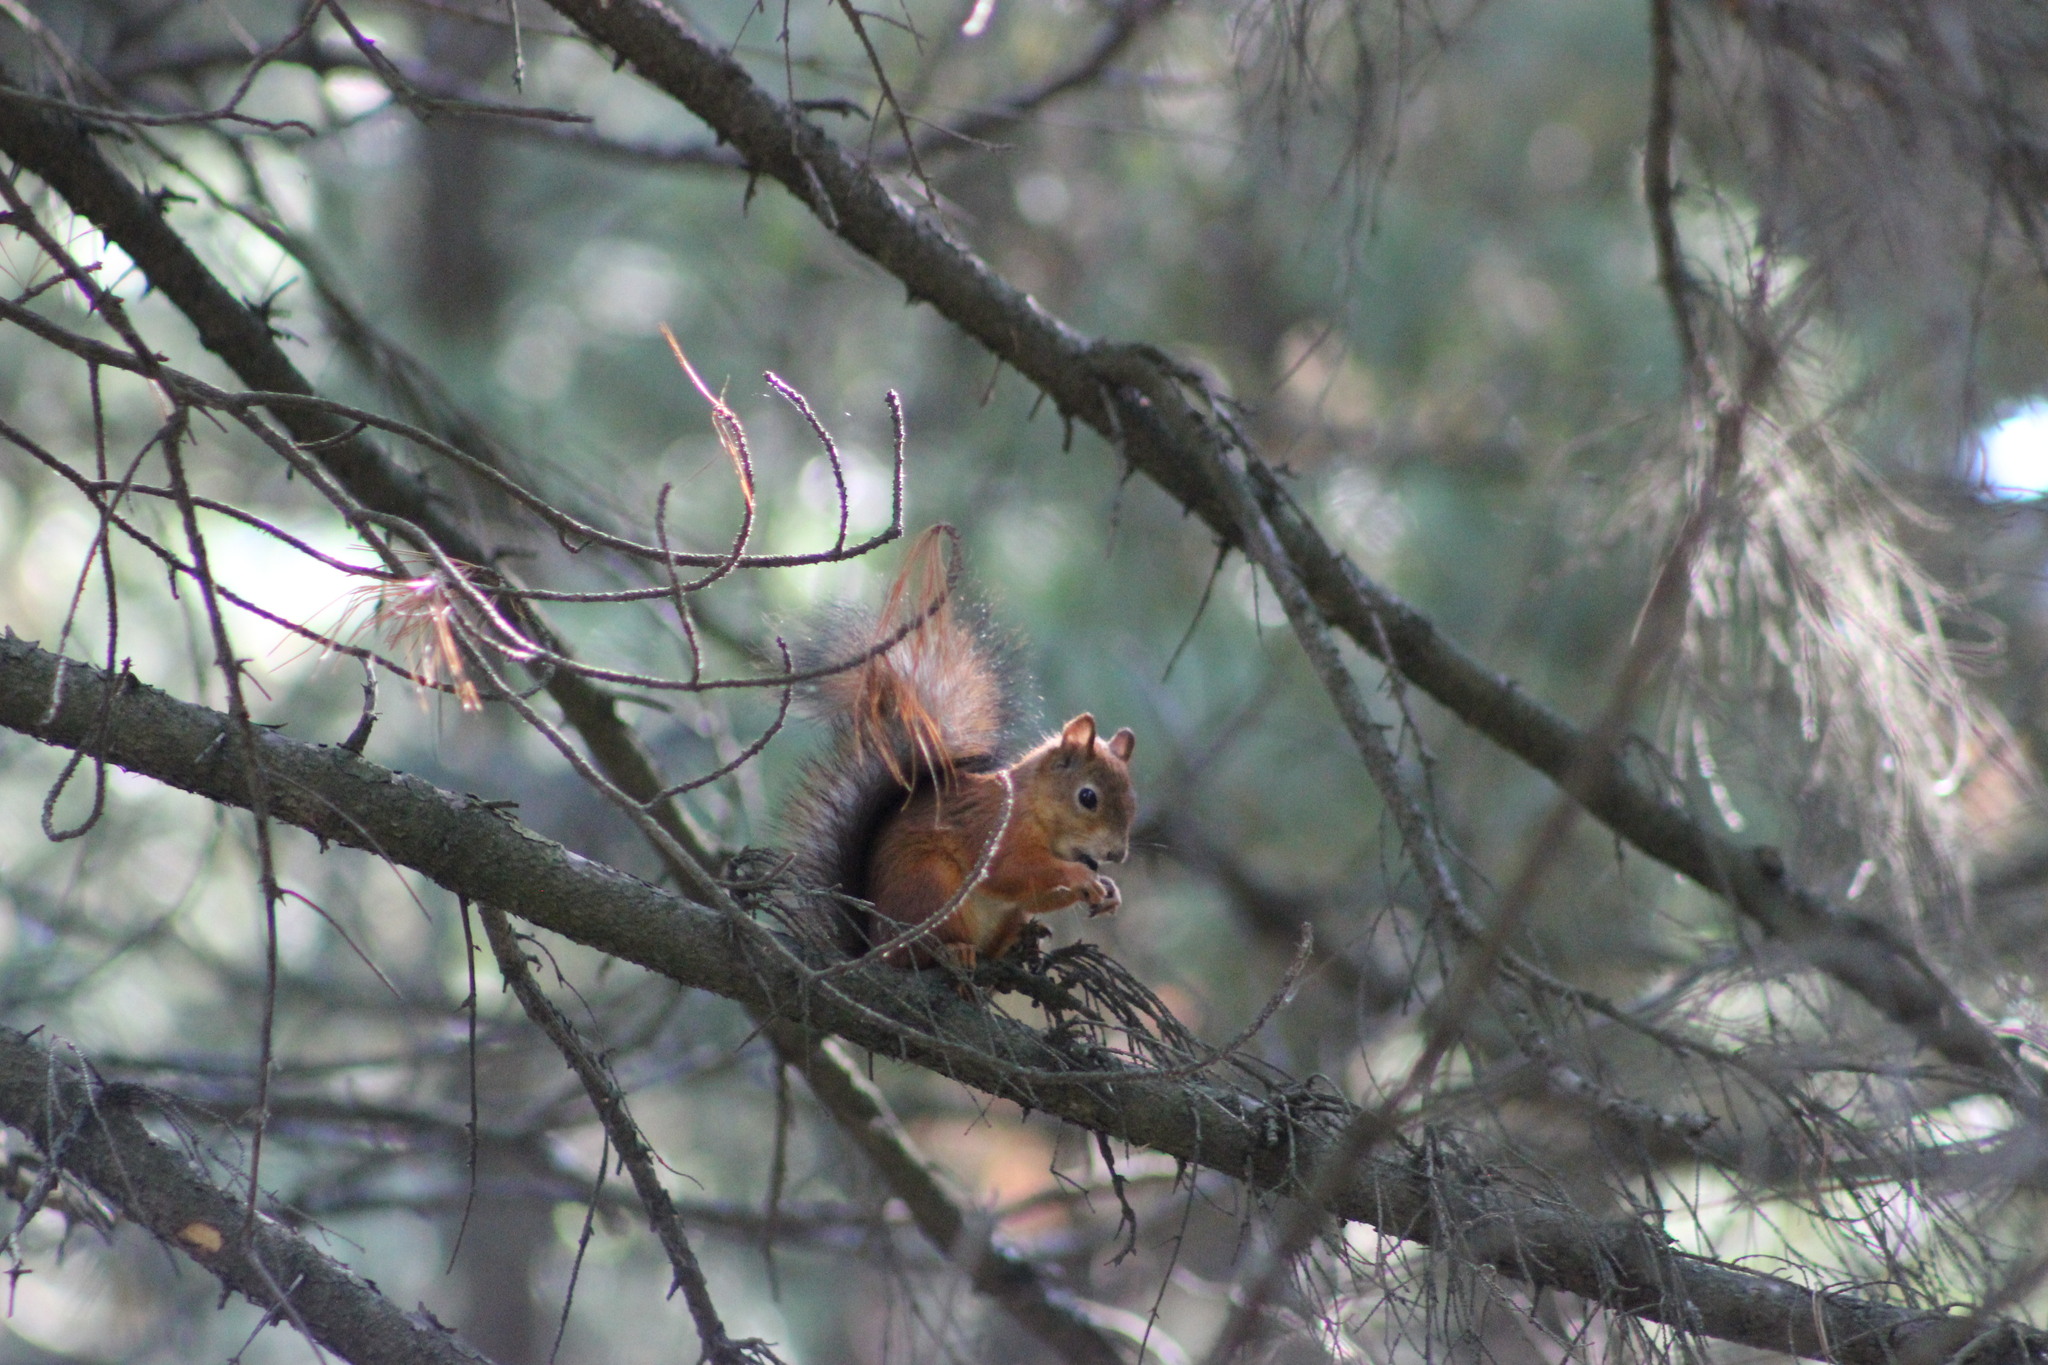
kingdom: Animalia
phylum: Chordata
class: Mammalia
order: Rodentia
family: Sciuridae
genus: Sciurus
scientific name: Sciurus vulgaris
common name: Eurasian red squirrel
